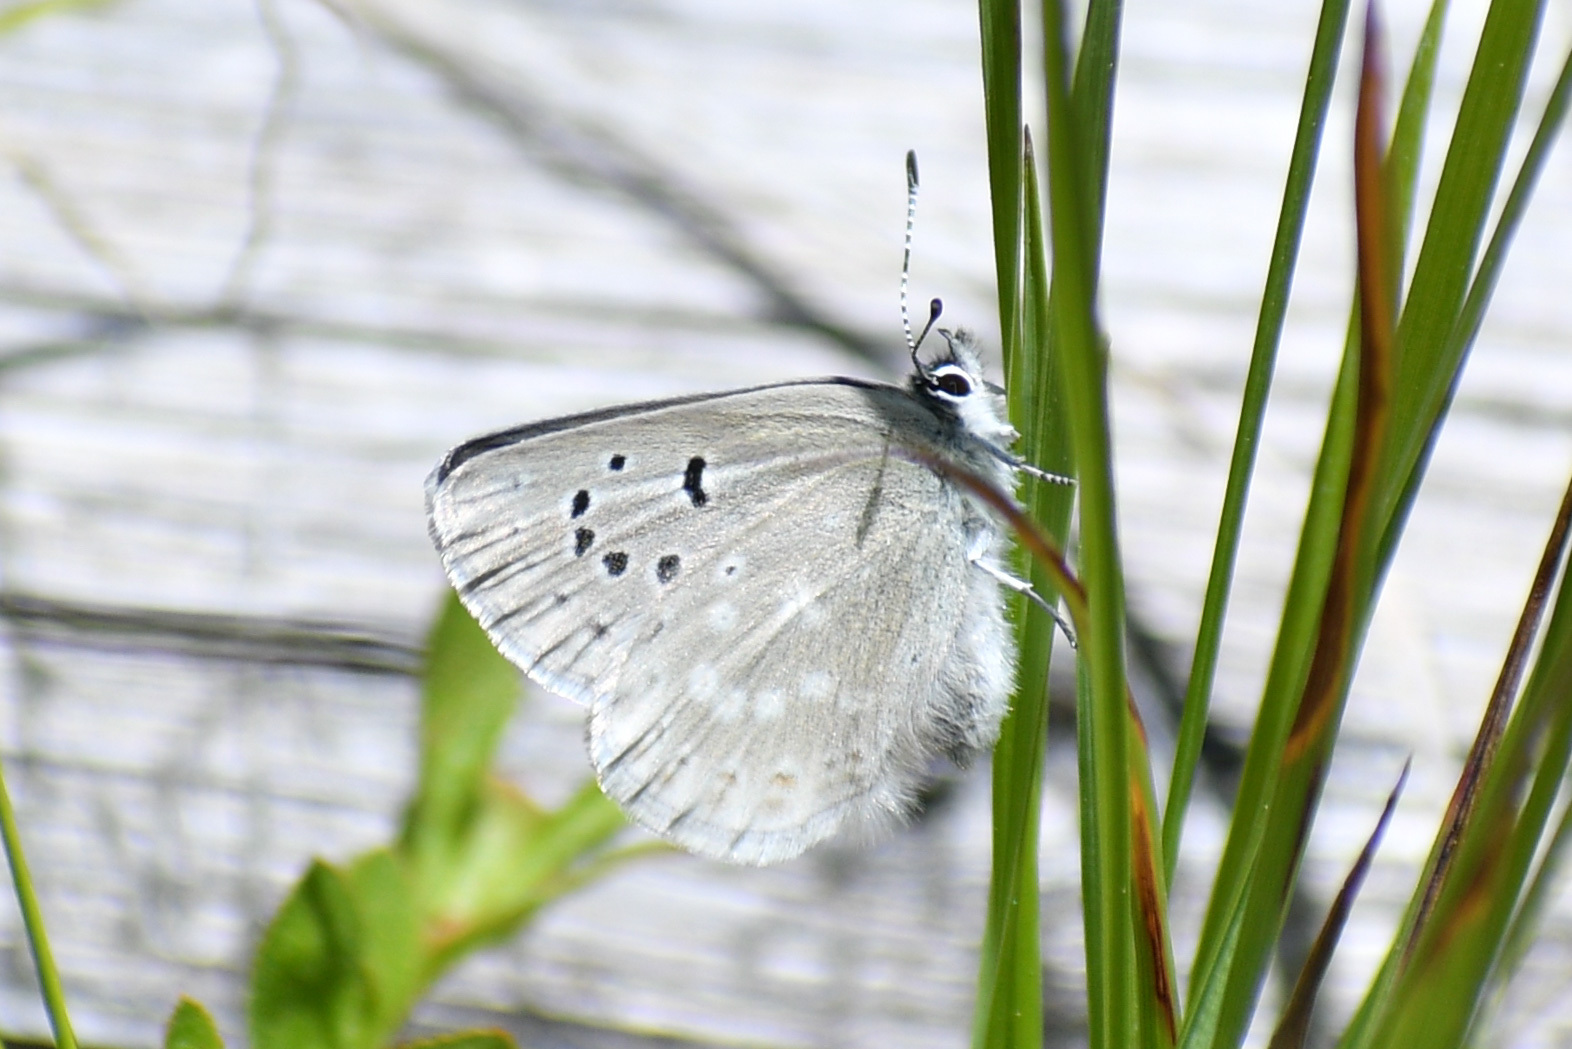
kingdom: Animalia
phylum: Arthropoda
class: Insecta
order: Lepidoptera
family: Lycaenidae
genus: Icaricia
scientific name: Icaricia icarioides
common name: Boisduval's blue
